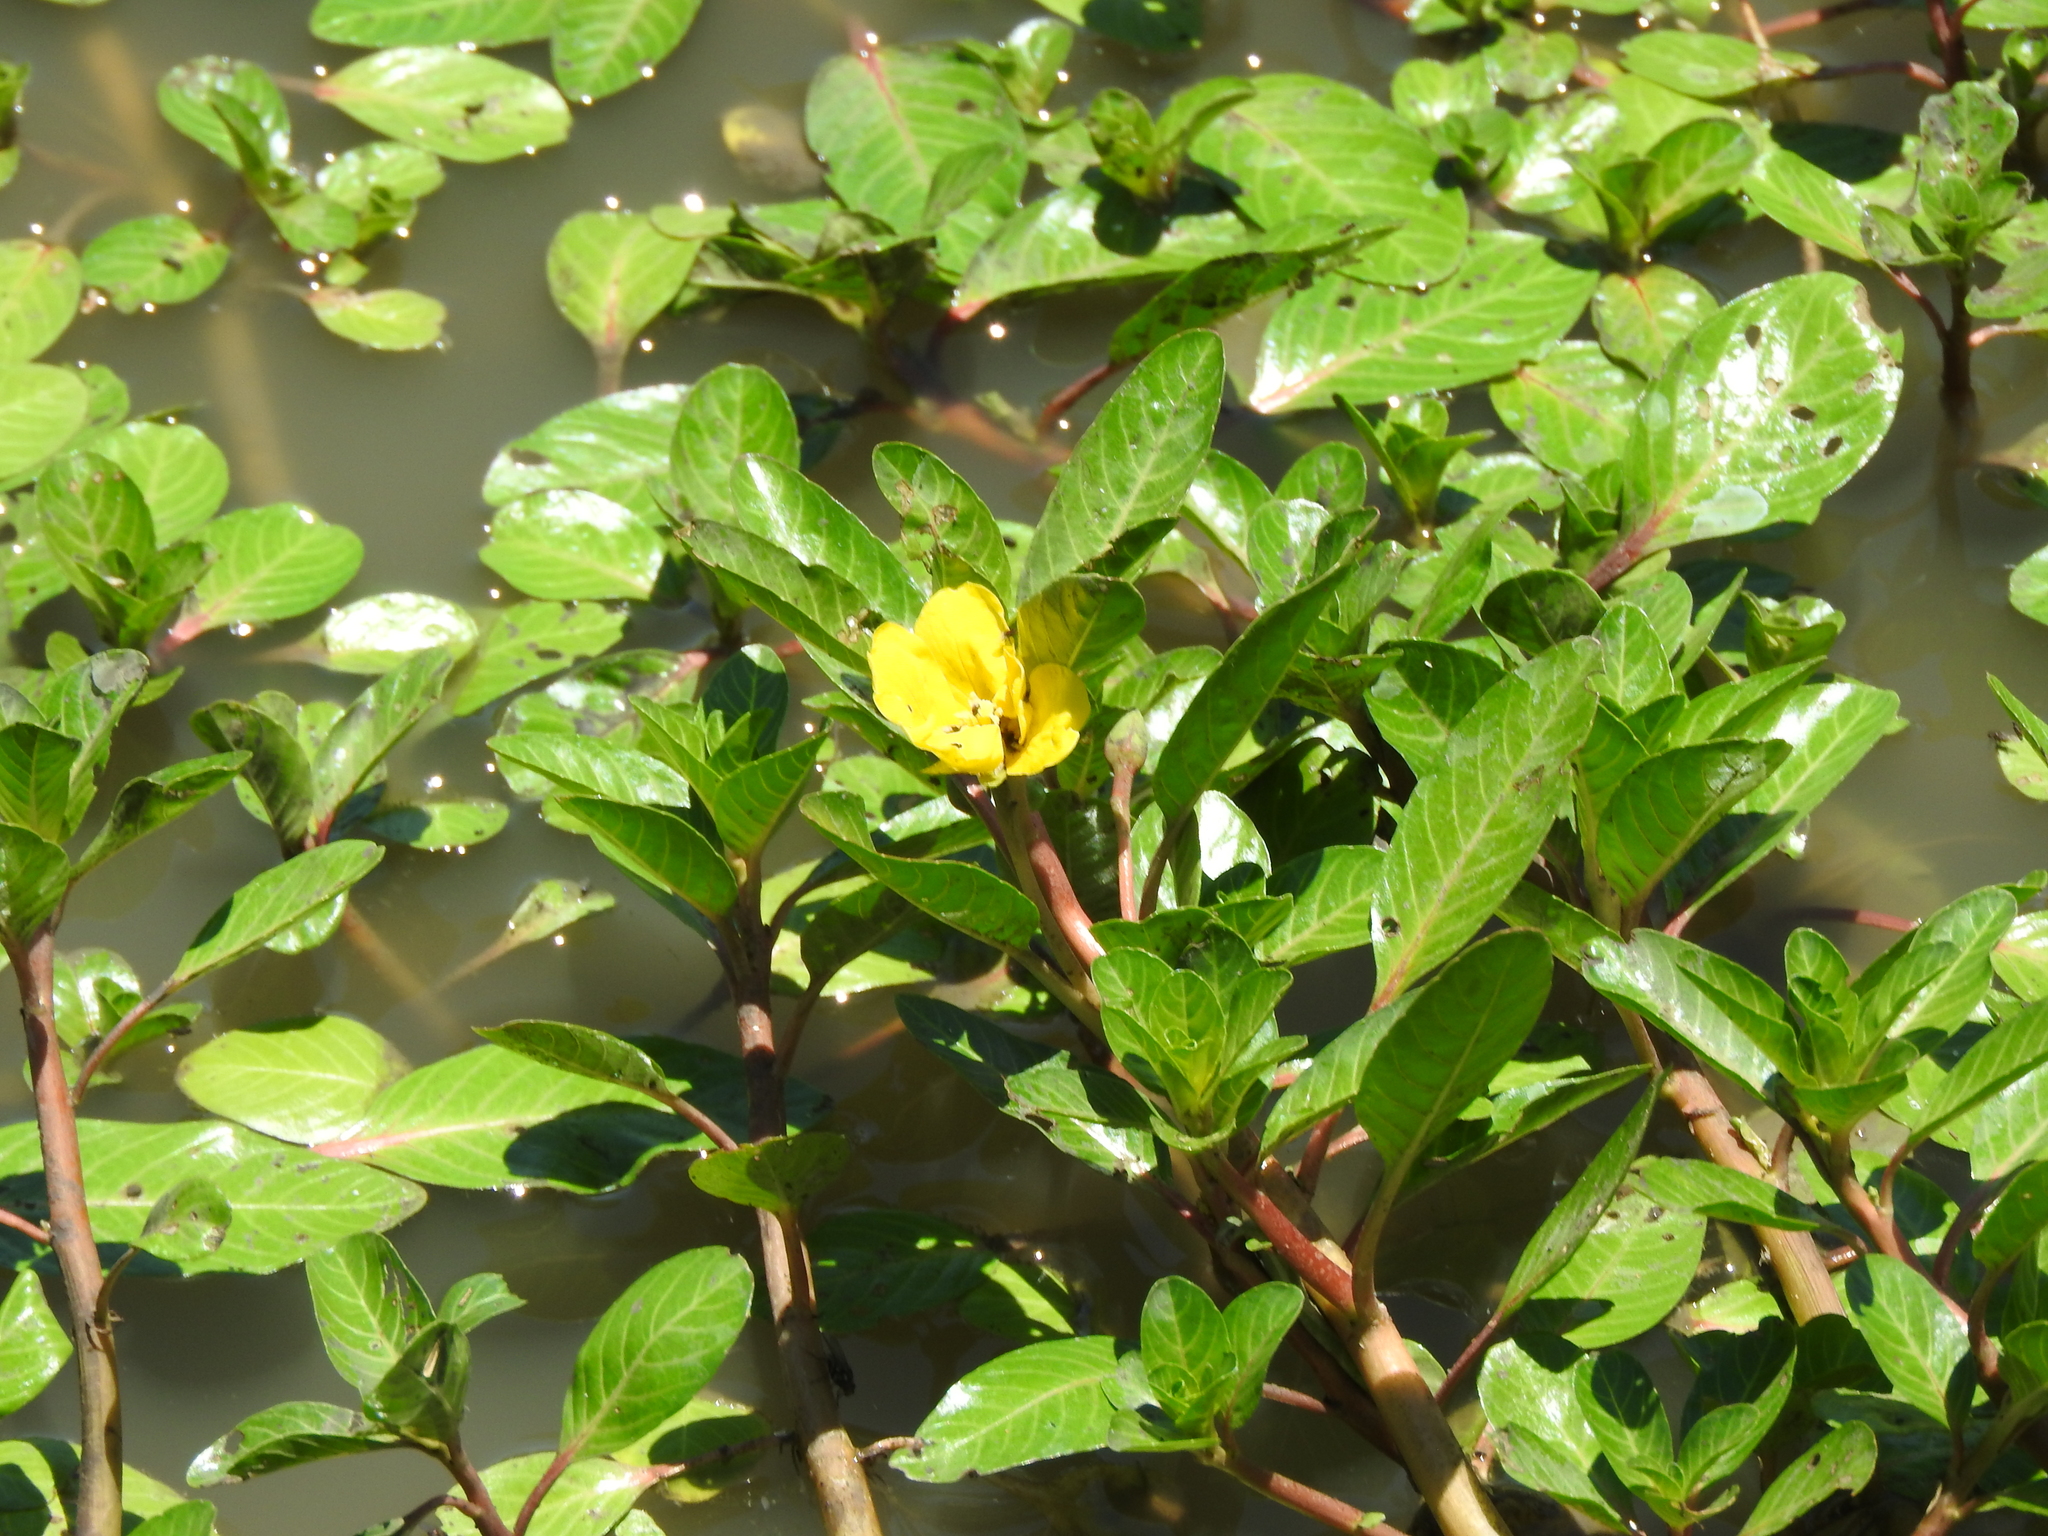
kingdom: Plantae
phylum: Tracheophyta
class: Magnoliopsida
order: Myrtales
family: Onagraceae
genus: Ludwigia
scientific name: Ludwigia peploides
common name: Floating primrose-willow
